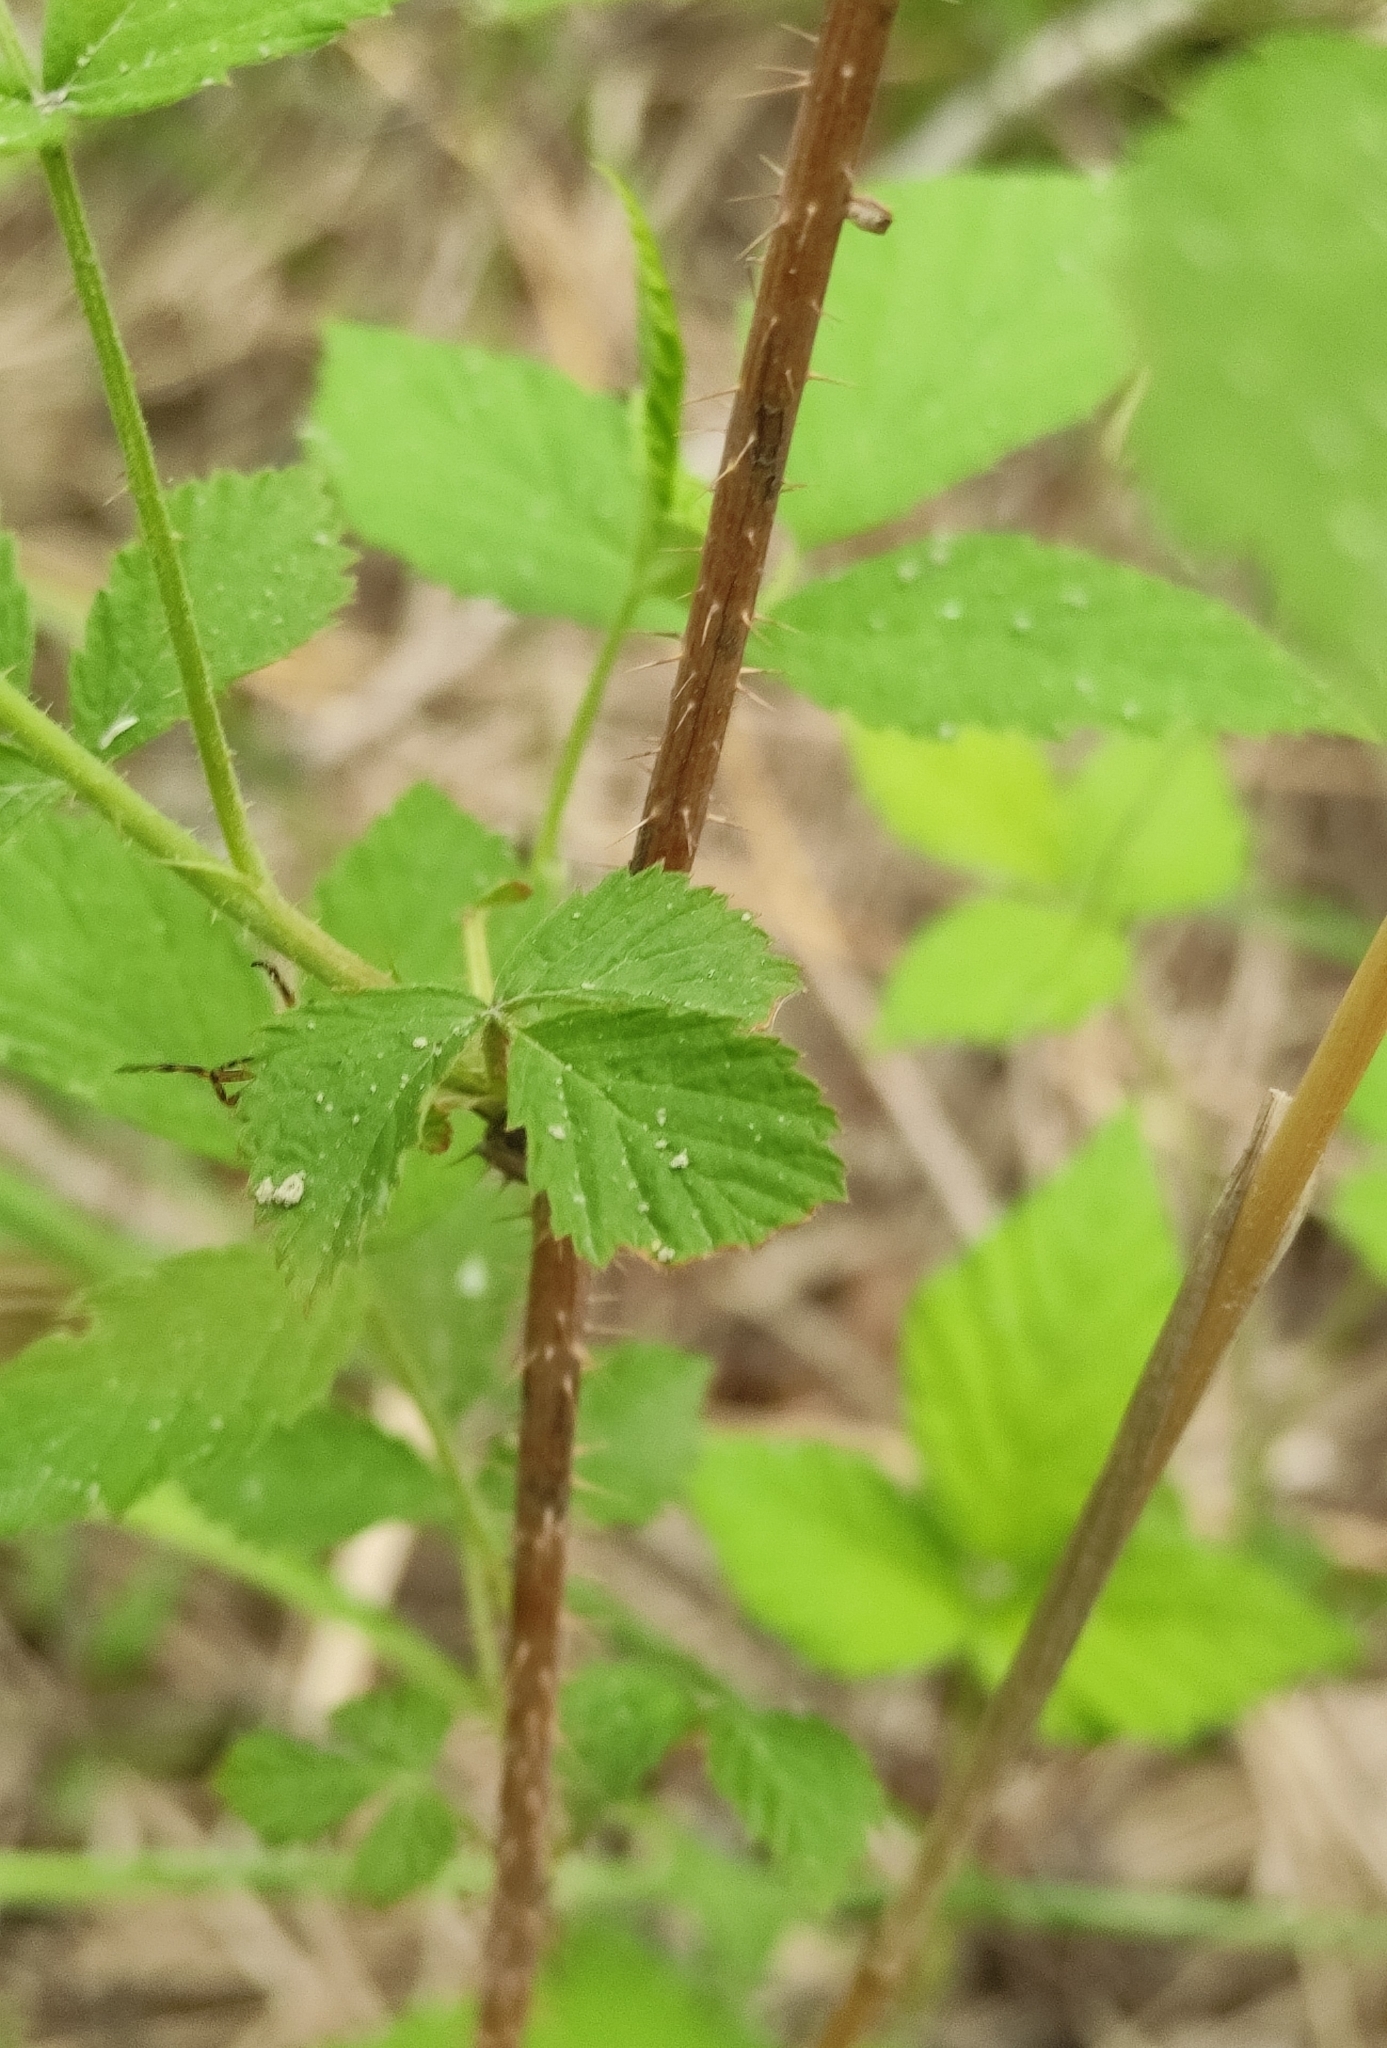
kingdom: Plantae
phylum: Tracheophyta
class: Magnoliopsida
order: Rosales
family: Rosaceae
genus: Rubus
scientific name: Rubus sachalinensis
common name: Red raspberry
